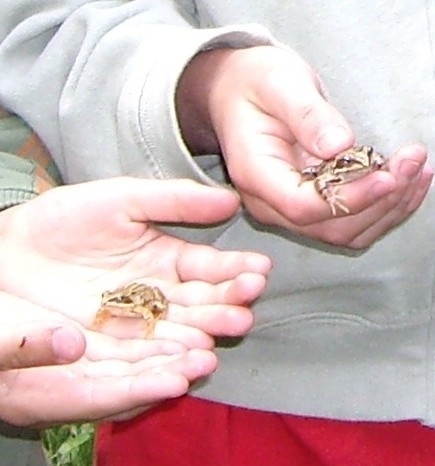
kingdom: Animalia
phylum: Chordata
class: Amphibia
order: Anura
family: Ranidae
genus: Rana
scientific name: Rana temporaria
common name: Common frog
